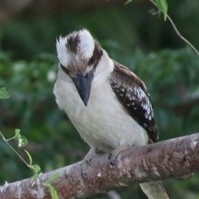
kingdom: Animalia
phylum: Chordata
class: Aves
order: Coraciiformes
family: Alcedinidae
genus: Dacelo
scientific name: Dacelo novaeguineae
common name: Laughing kookaburra
